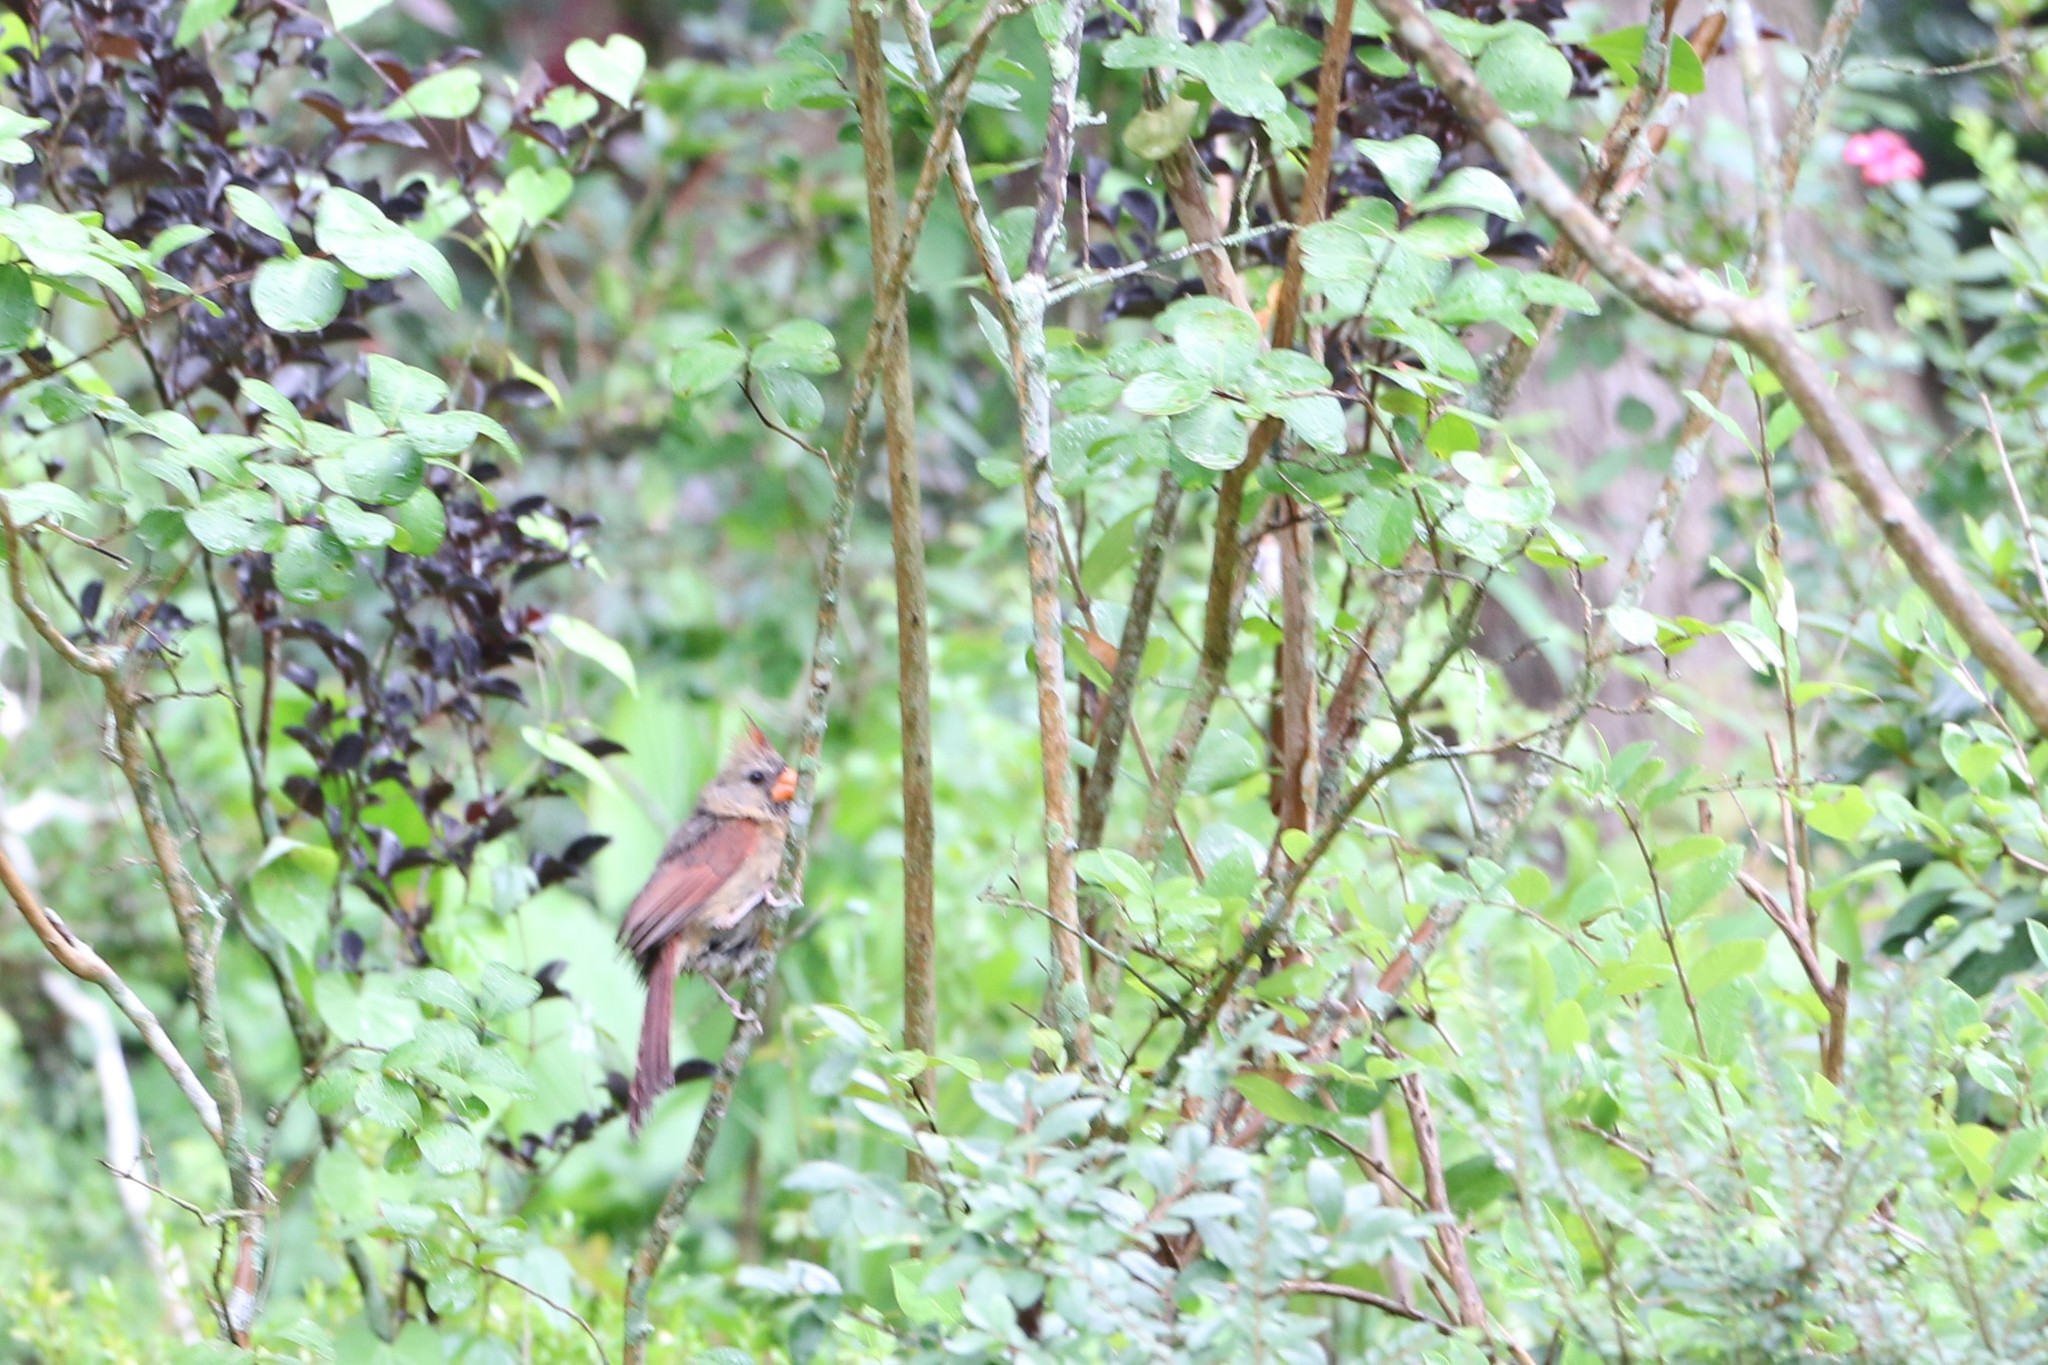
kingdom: Animalia
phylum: Chordata
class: Aves
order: Passeriformes
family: Cardinalidae
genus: Cardinalis
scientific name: Cardinalis cardinalis
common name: Northern cardinal
